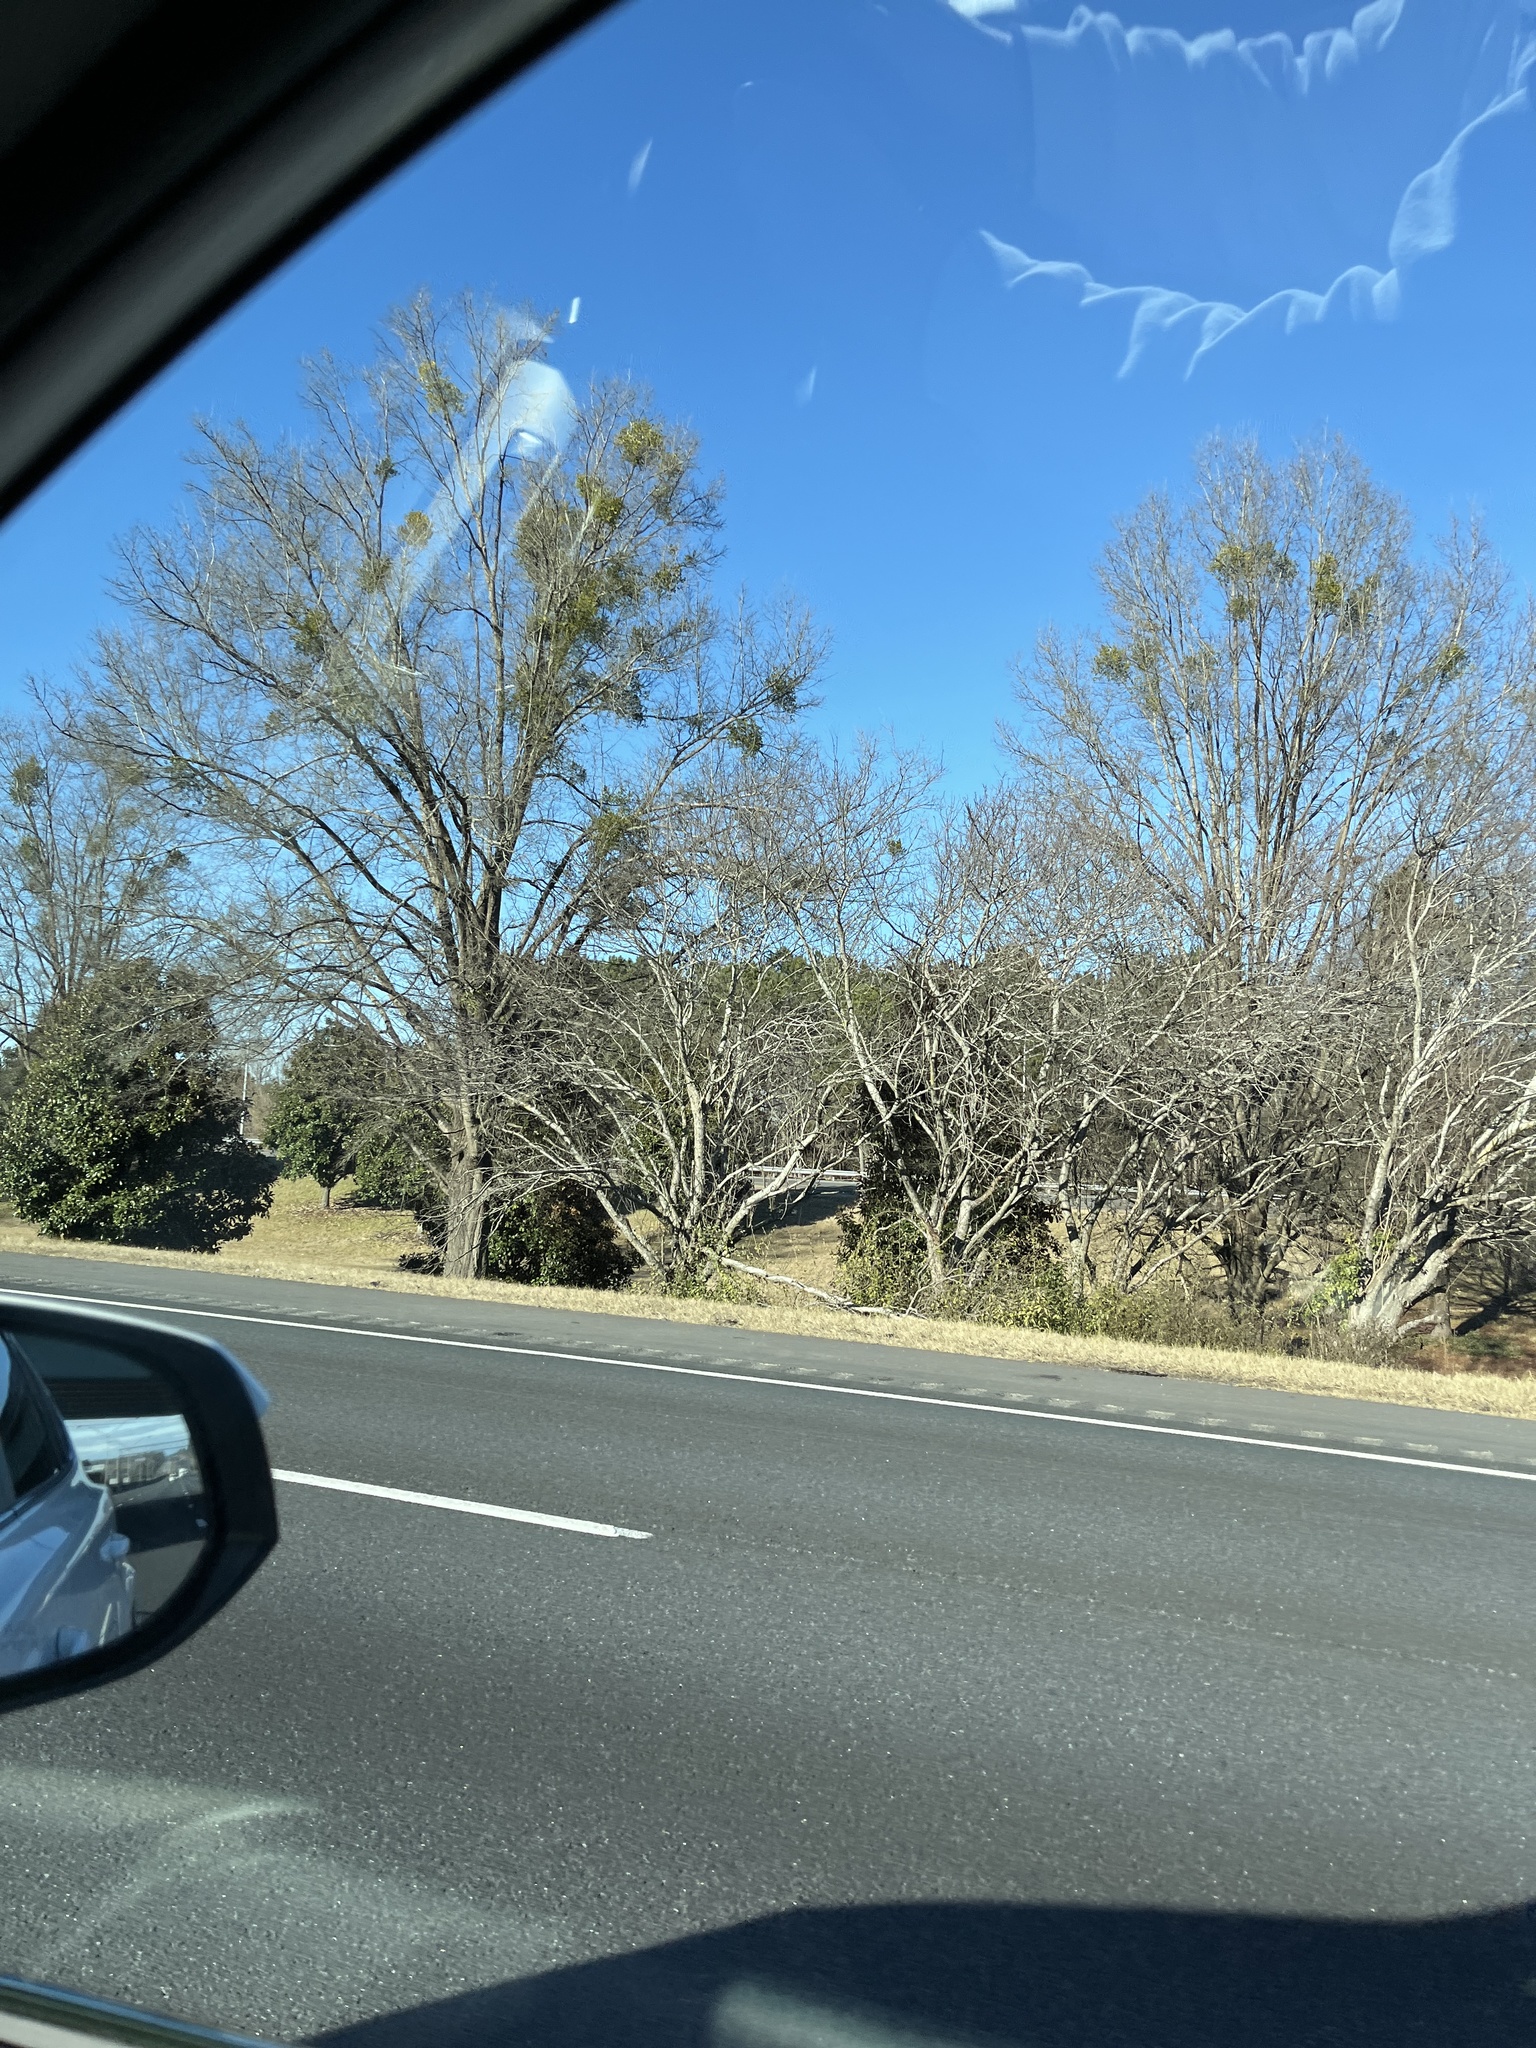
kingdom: Plantae
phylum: Tracheophyta
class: Magnoliopsida
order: Santalales
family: Viscaceae
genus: Phoradendron
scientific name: Phoradendron leucarpum
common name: Pacific mistletoe
